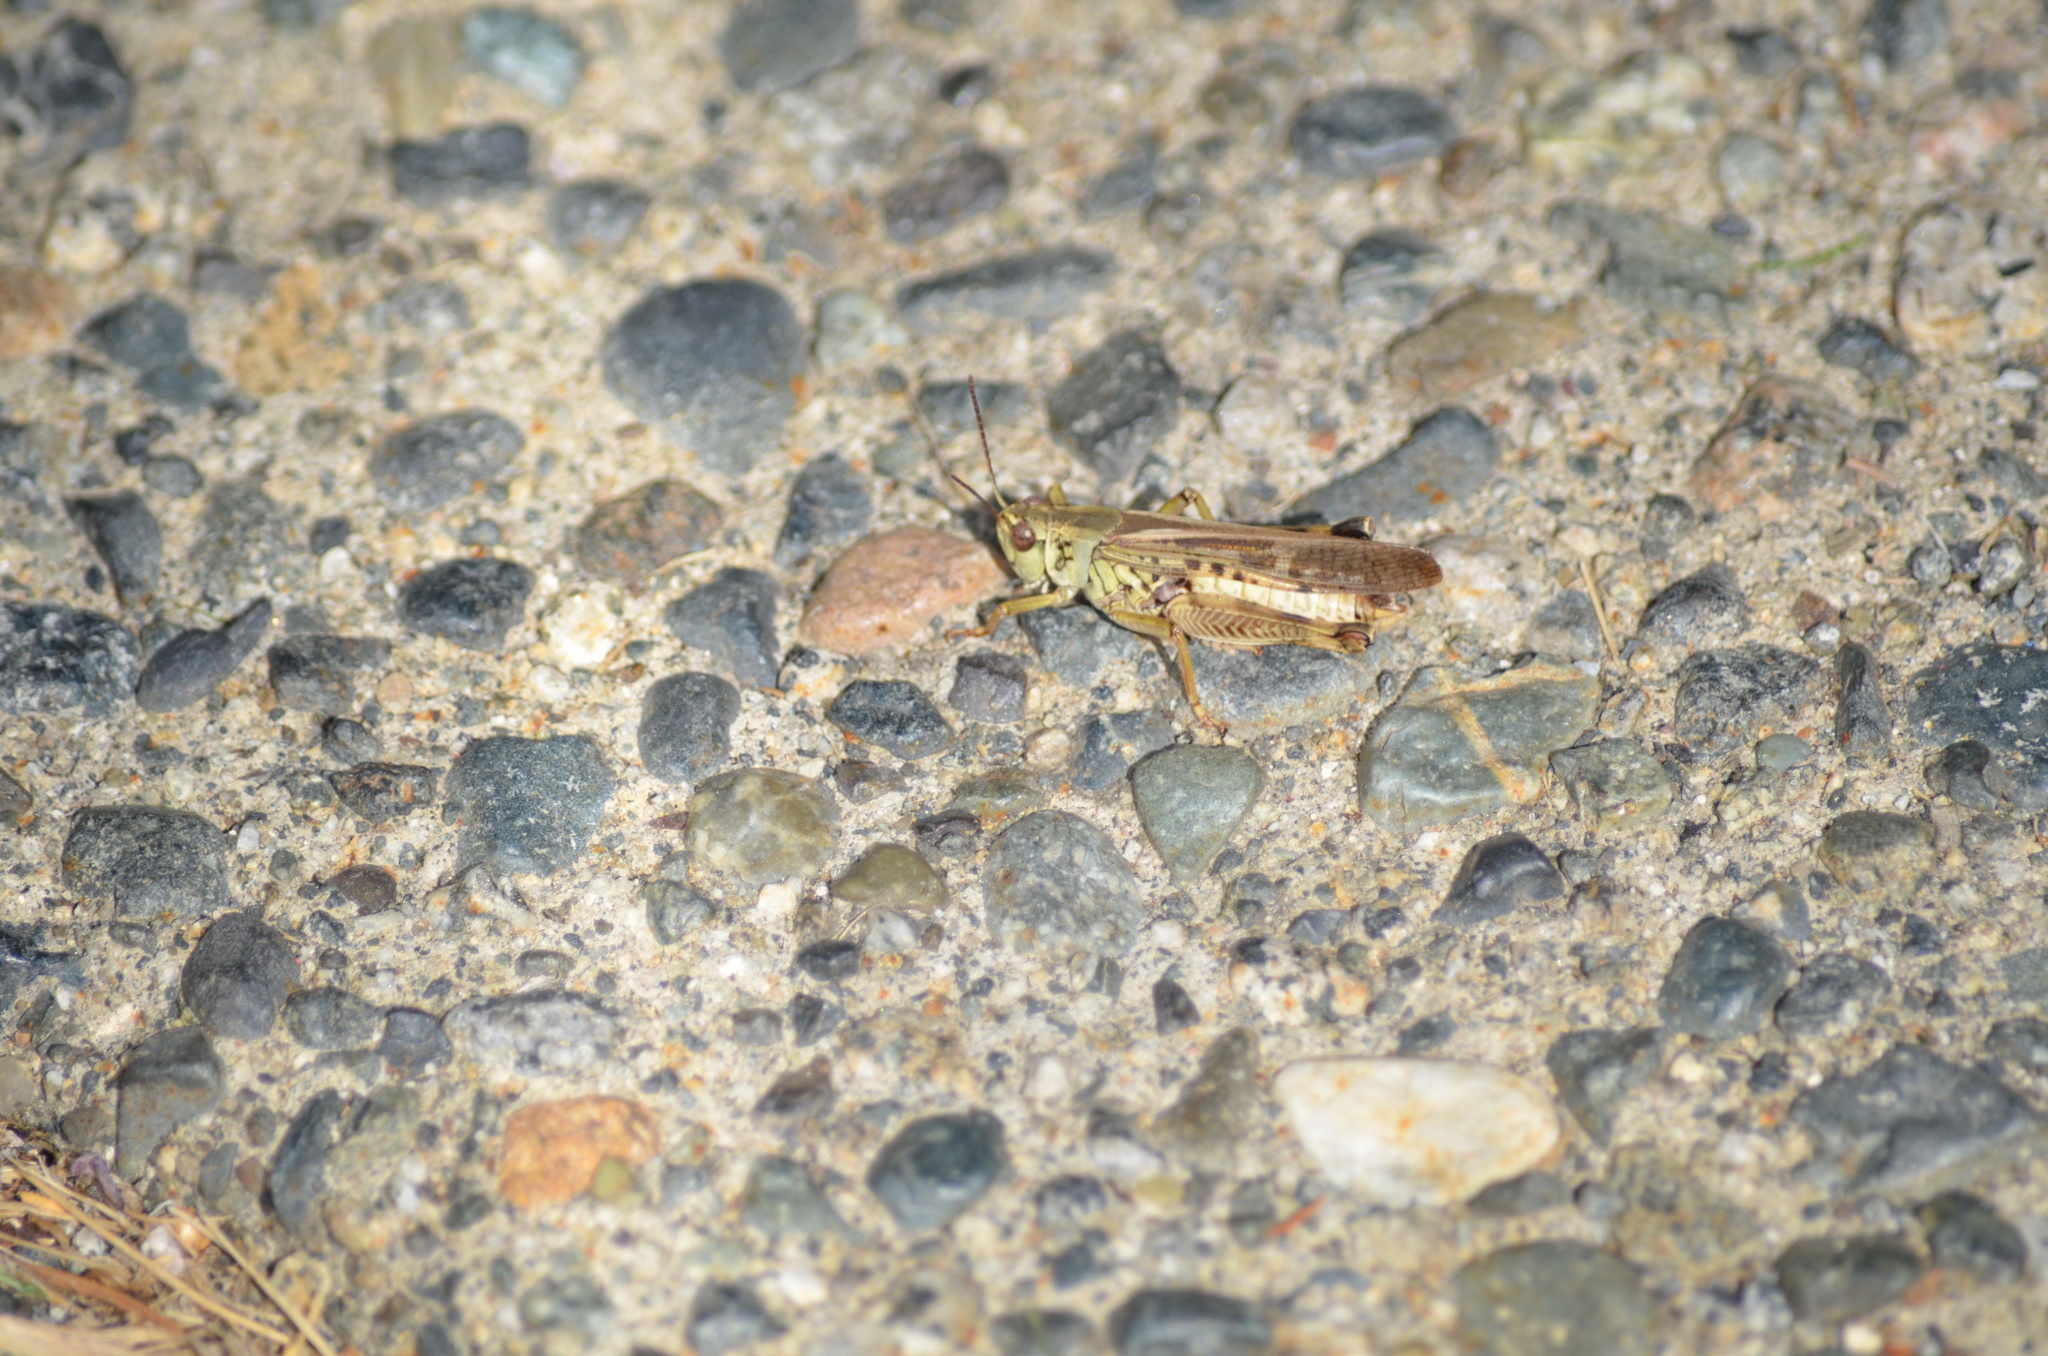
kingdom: Animalia
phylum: Arthropoda
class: Insecta
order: Orthoptera
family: Acrididae
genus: Camnula
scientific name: Camnula pellucida
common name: Clear-winged grasshopper
